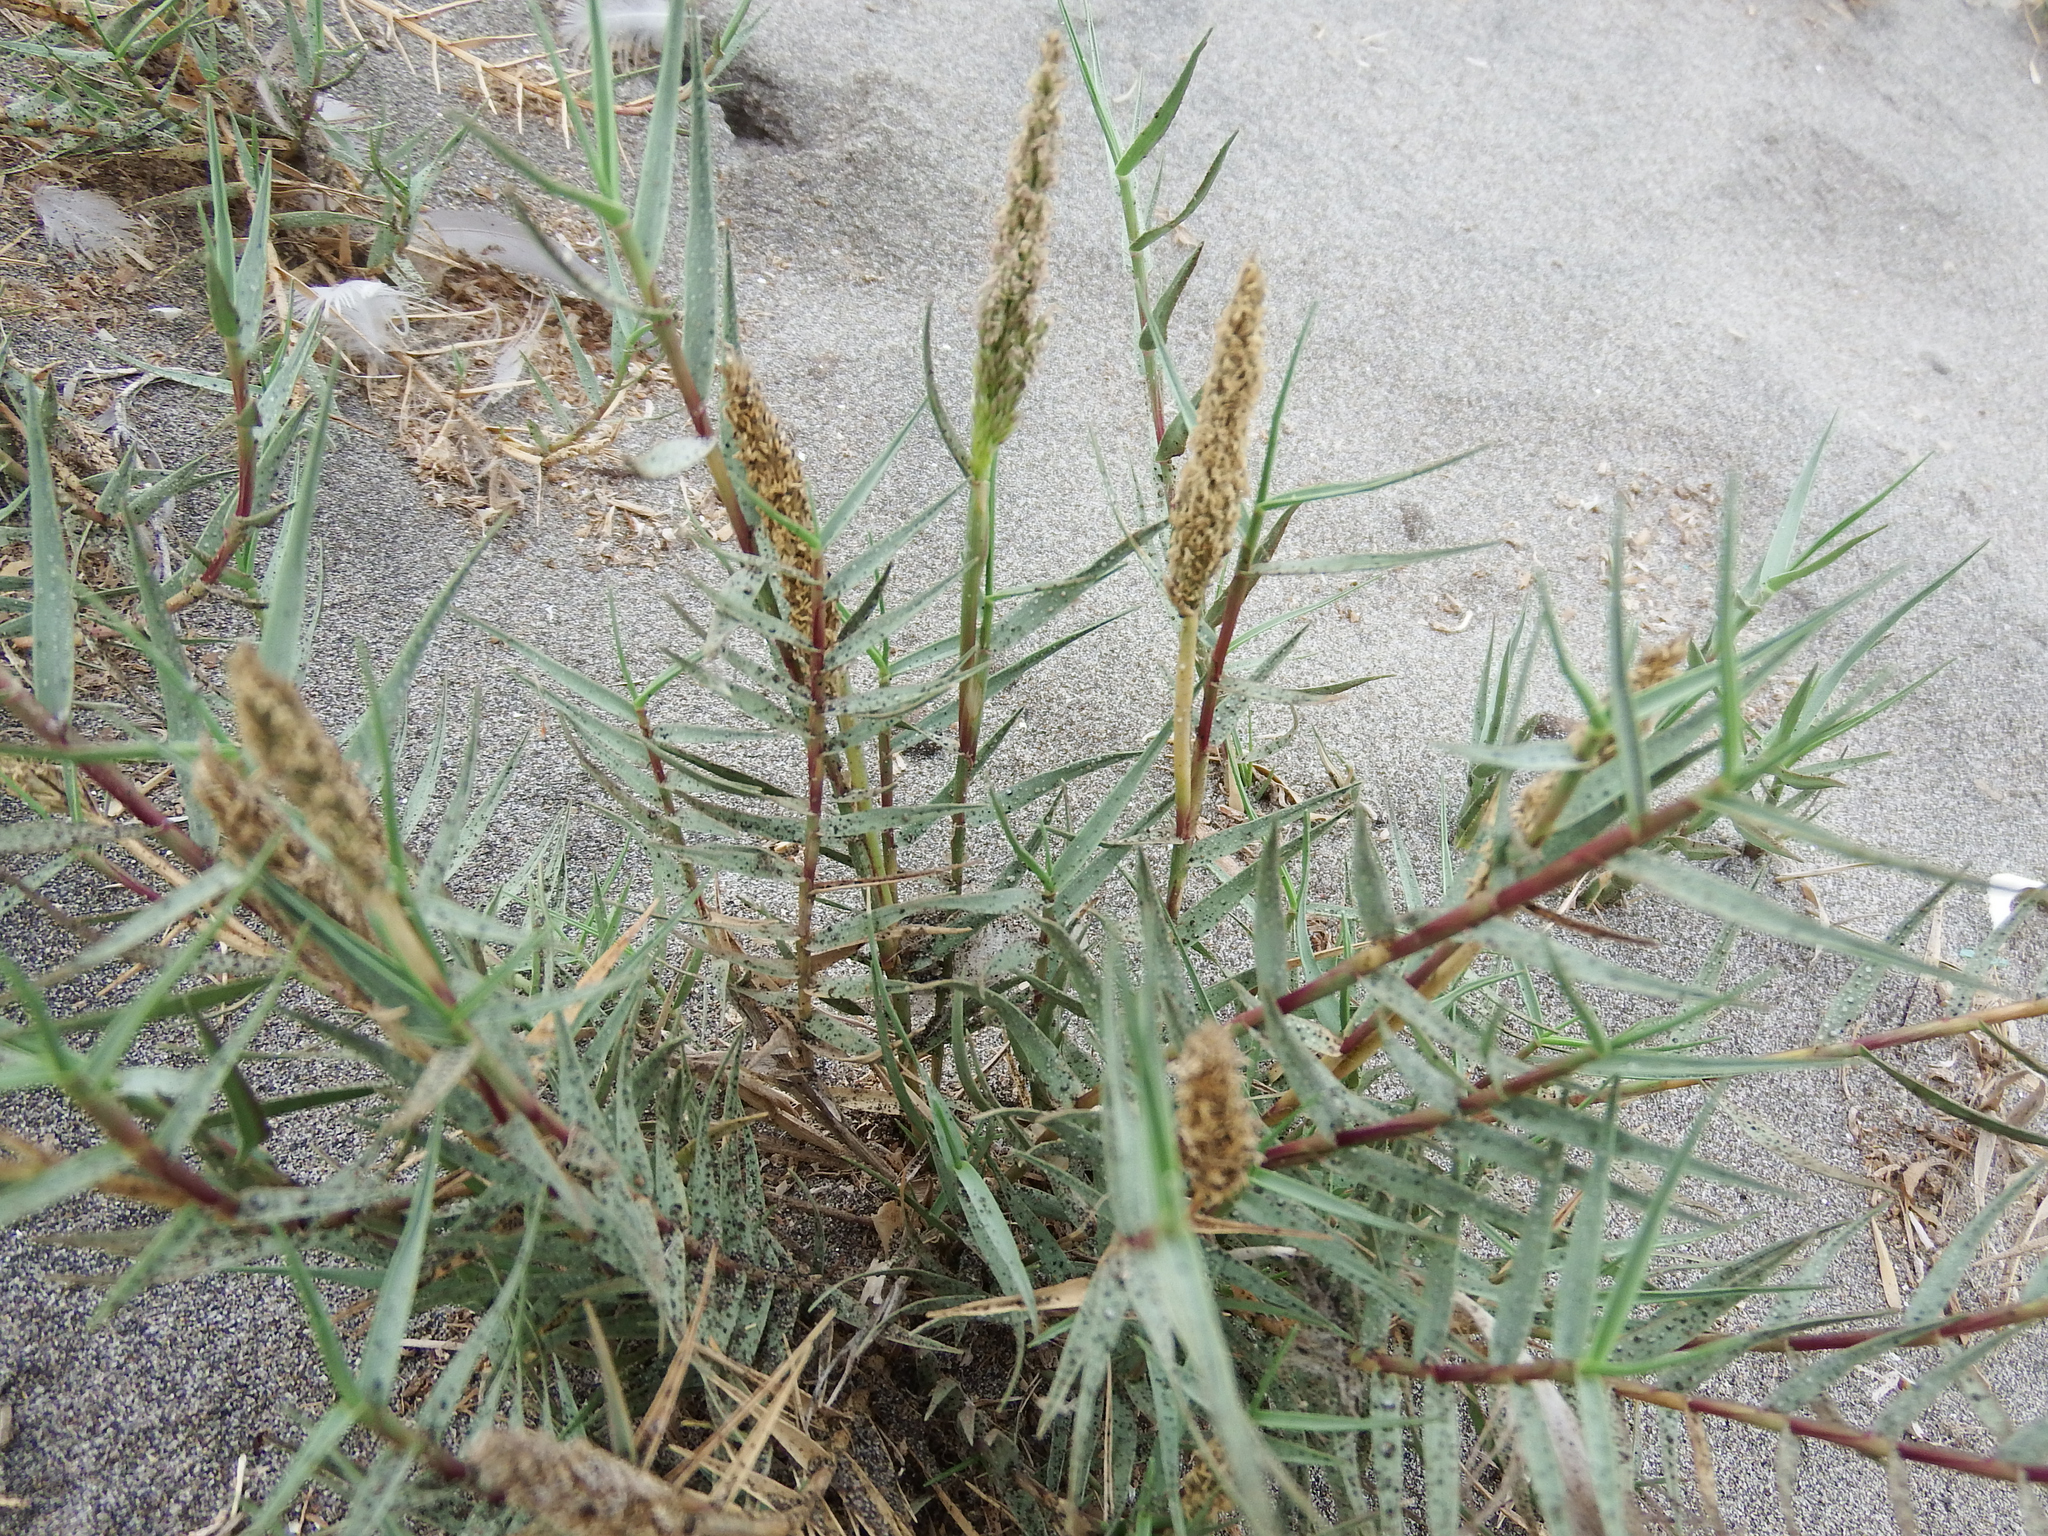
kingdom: Plantae
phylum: Tracheophyta
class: Liliopsida
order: Poales
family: Poaceae
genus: Distichlis
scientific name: Distichlis spicata
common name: Saltgrass
